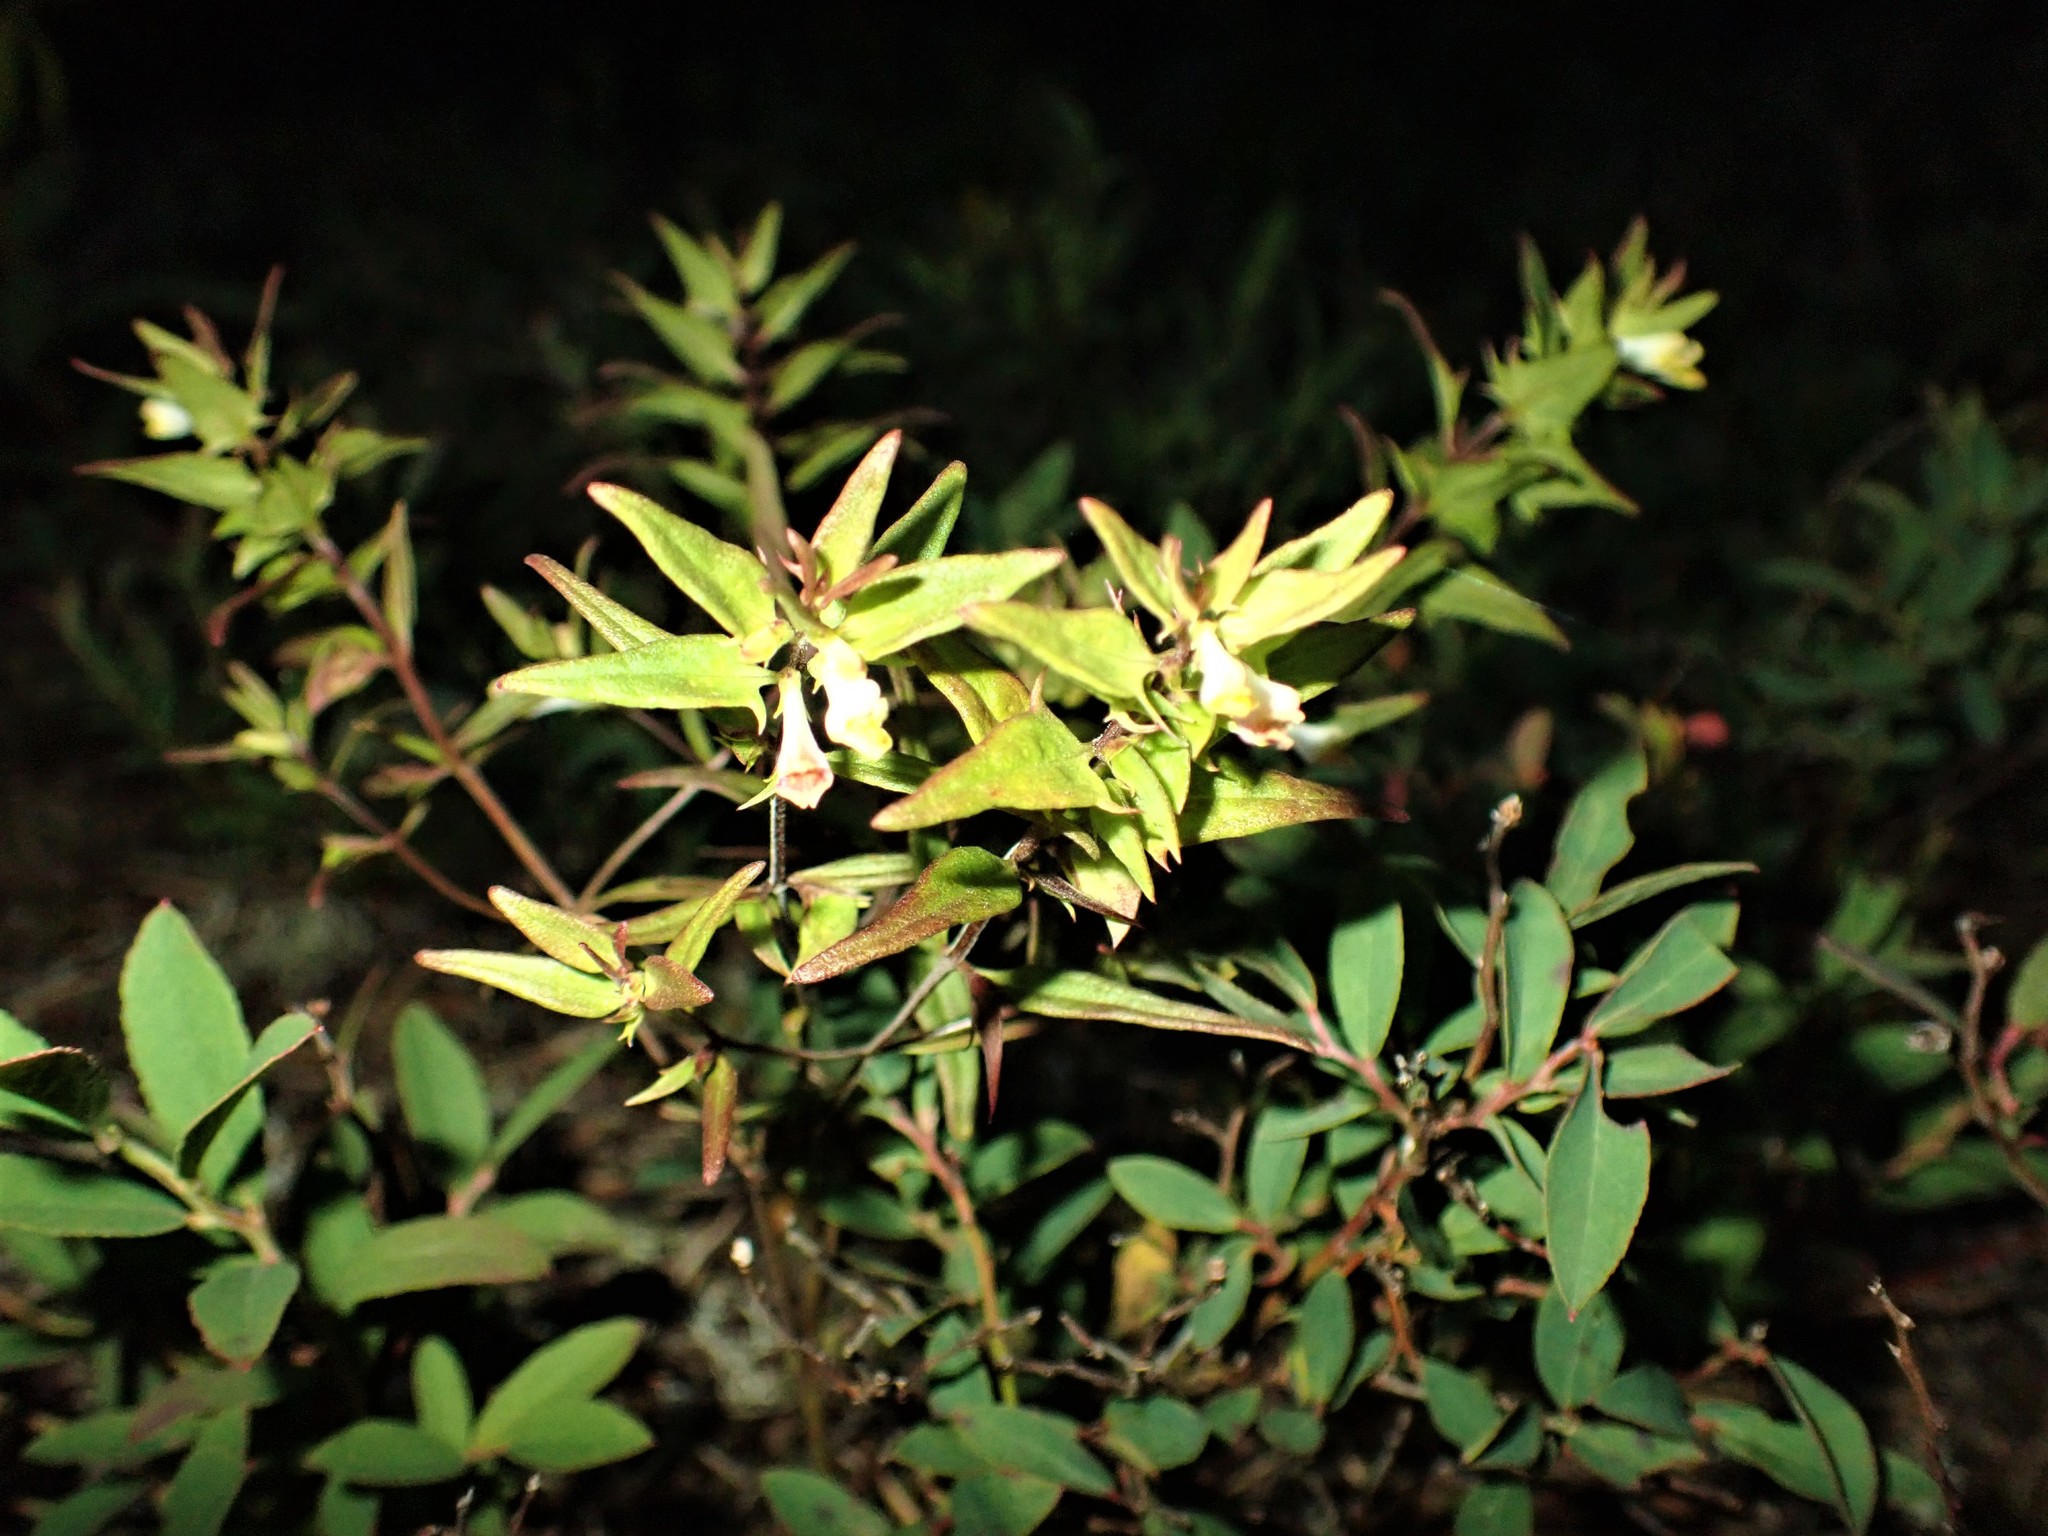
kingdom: Plantae
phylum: Tracheophyta
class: Magnoliopsida
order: Lamiales
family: Orobanchaceae
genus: Melampyrum
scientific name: Melampyrum lineare
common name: American cow-wheat
